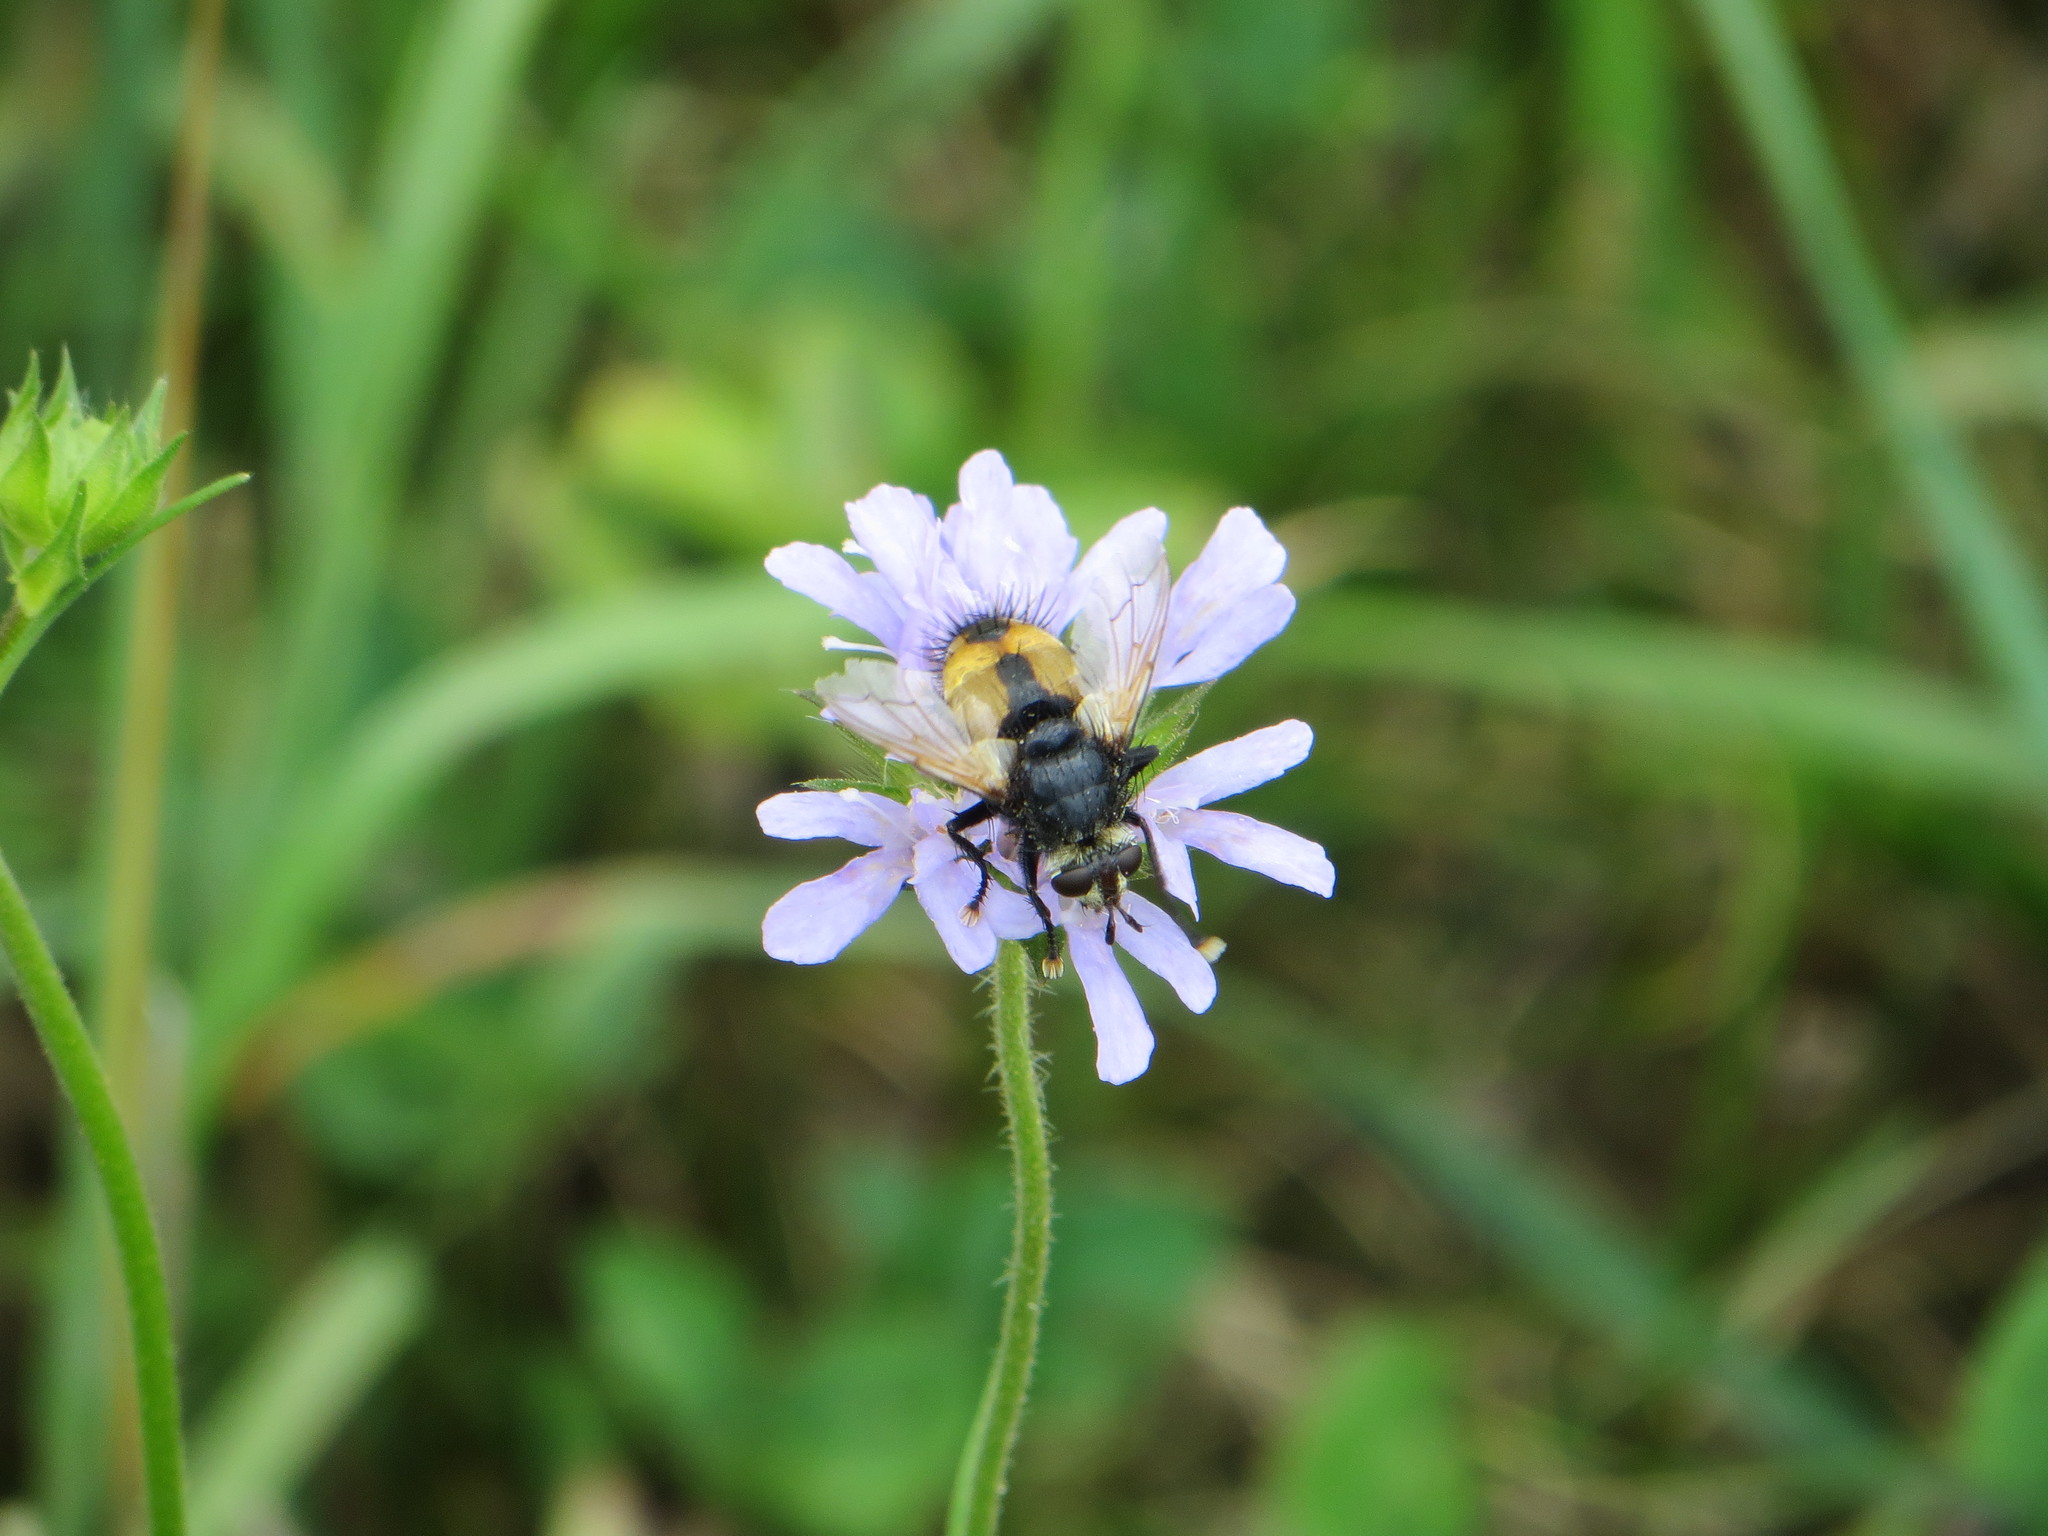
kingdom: Animalia
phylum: Arthropoda
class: Insecta
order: Diptera
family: Tachinidae
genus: Nowickia
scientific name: Nowickia ferox
